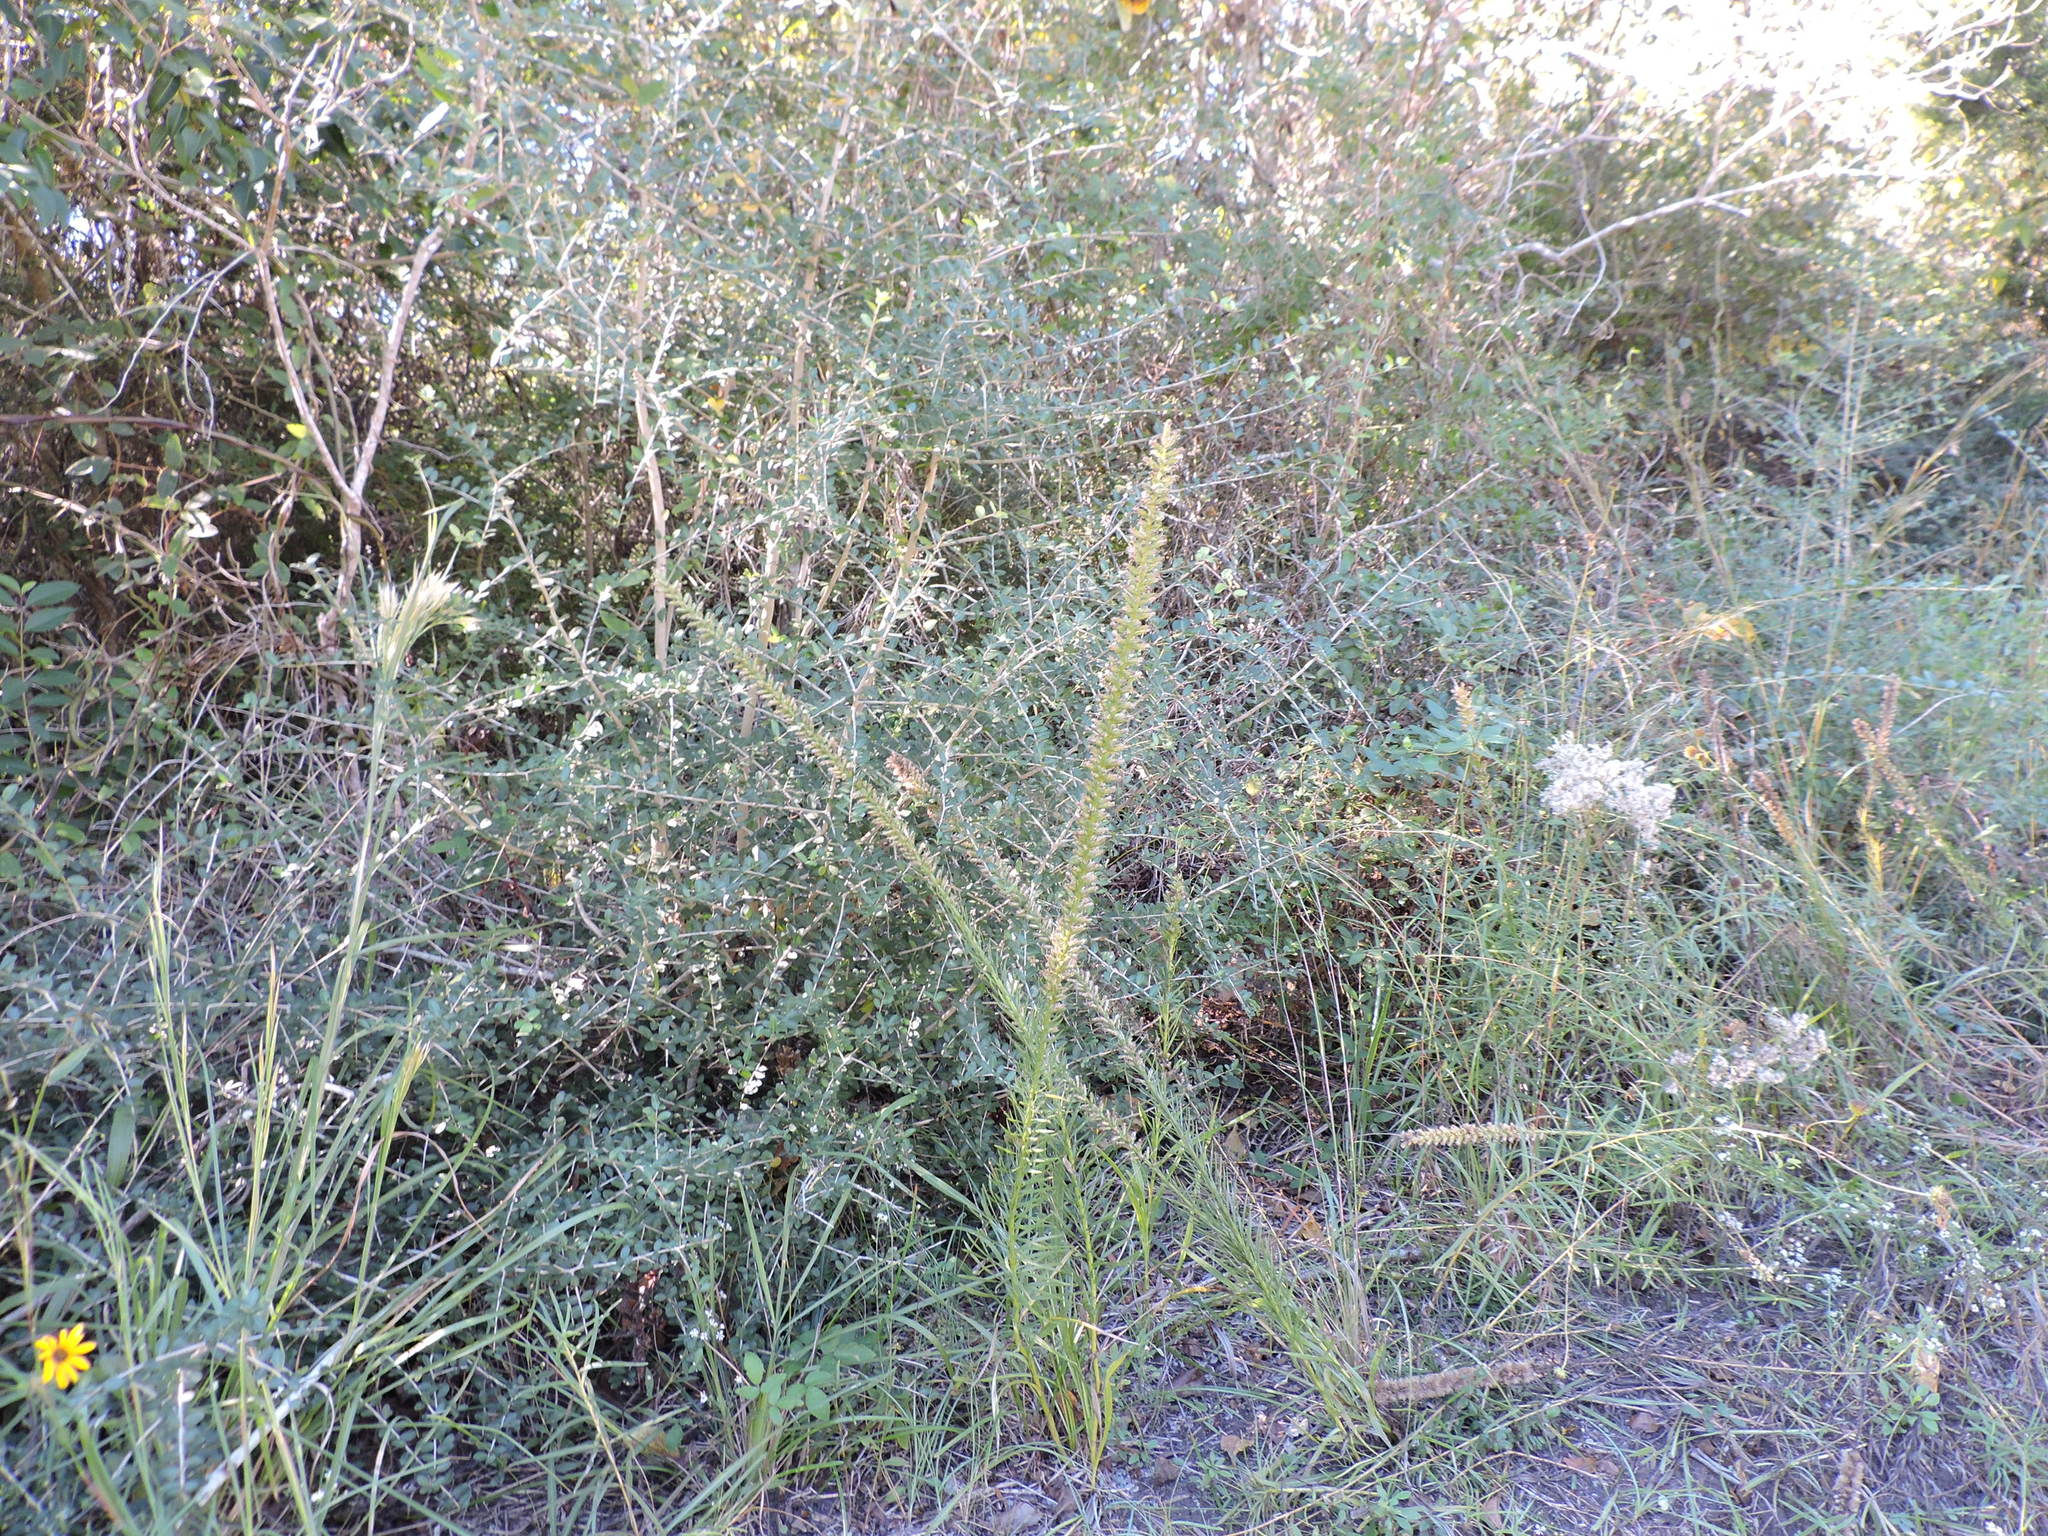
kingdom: Plantae
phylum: Tracheophyta
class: Magnoliopsida
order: Asterales
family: Asteraceae
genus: Liatris
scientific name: Liatris pycnostachya
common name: Cattail gayfeather
